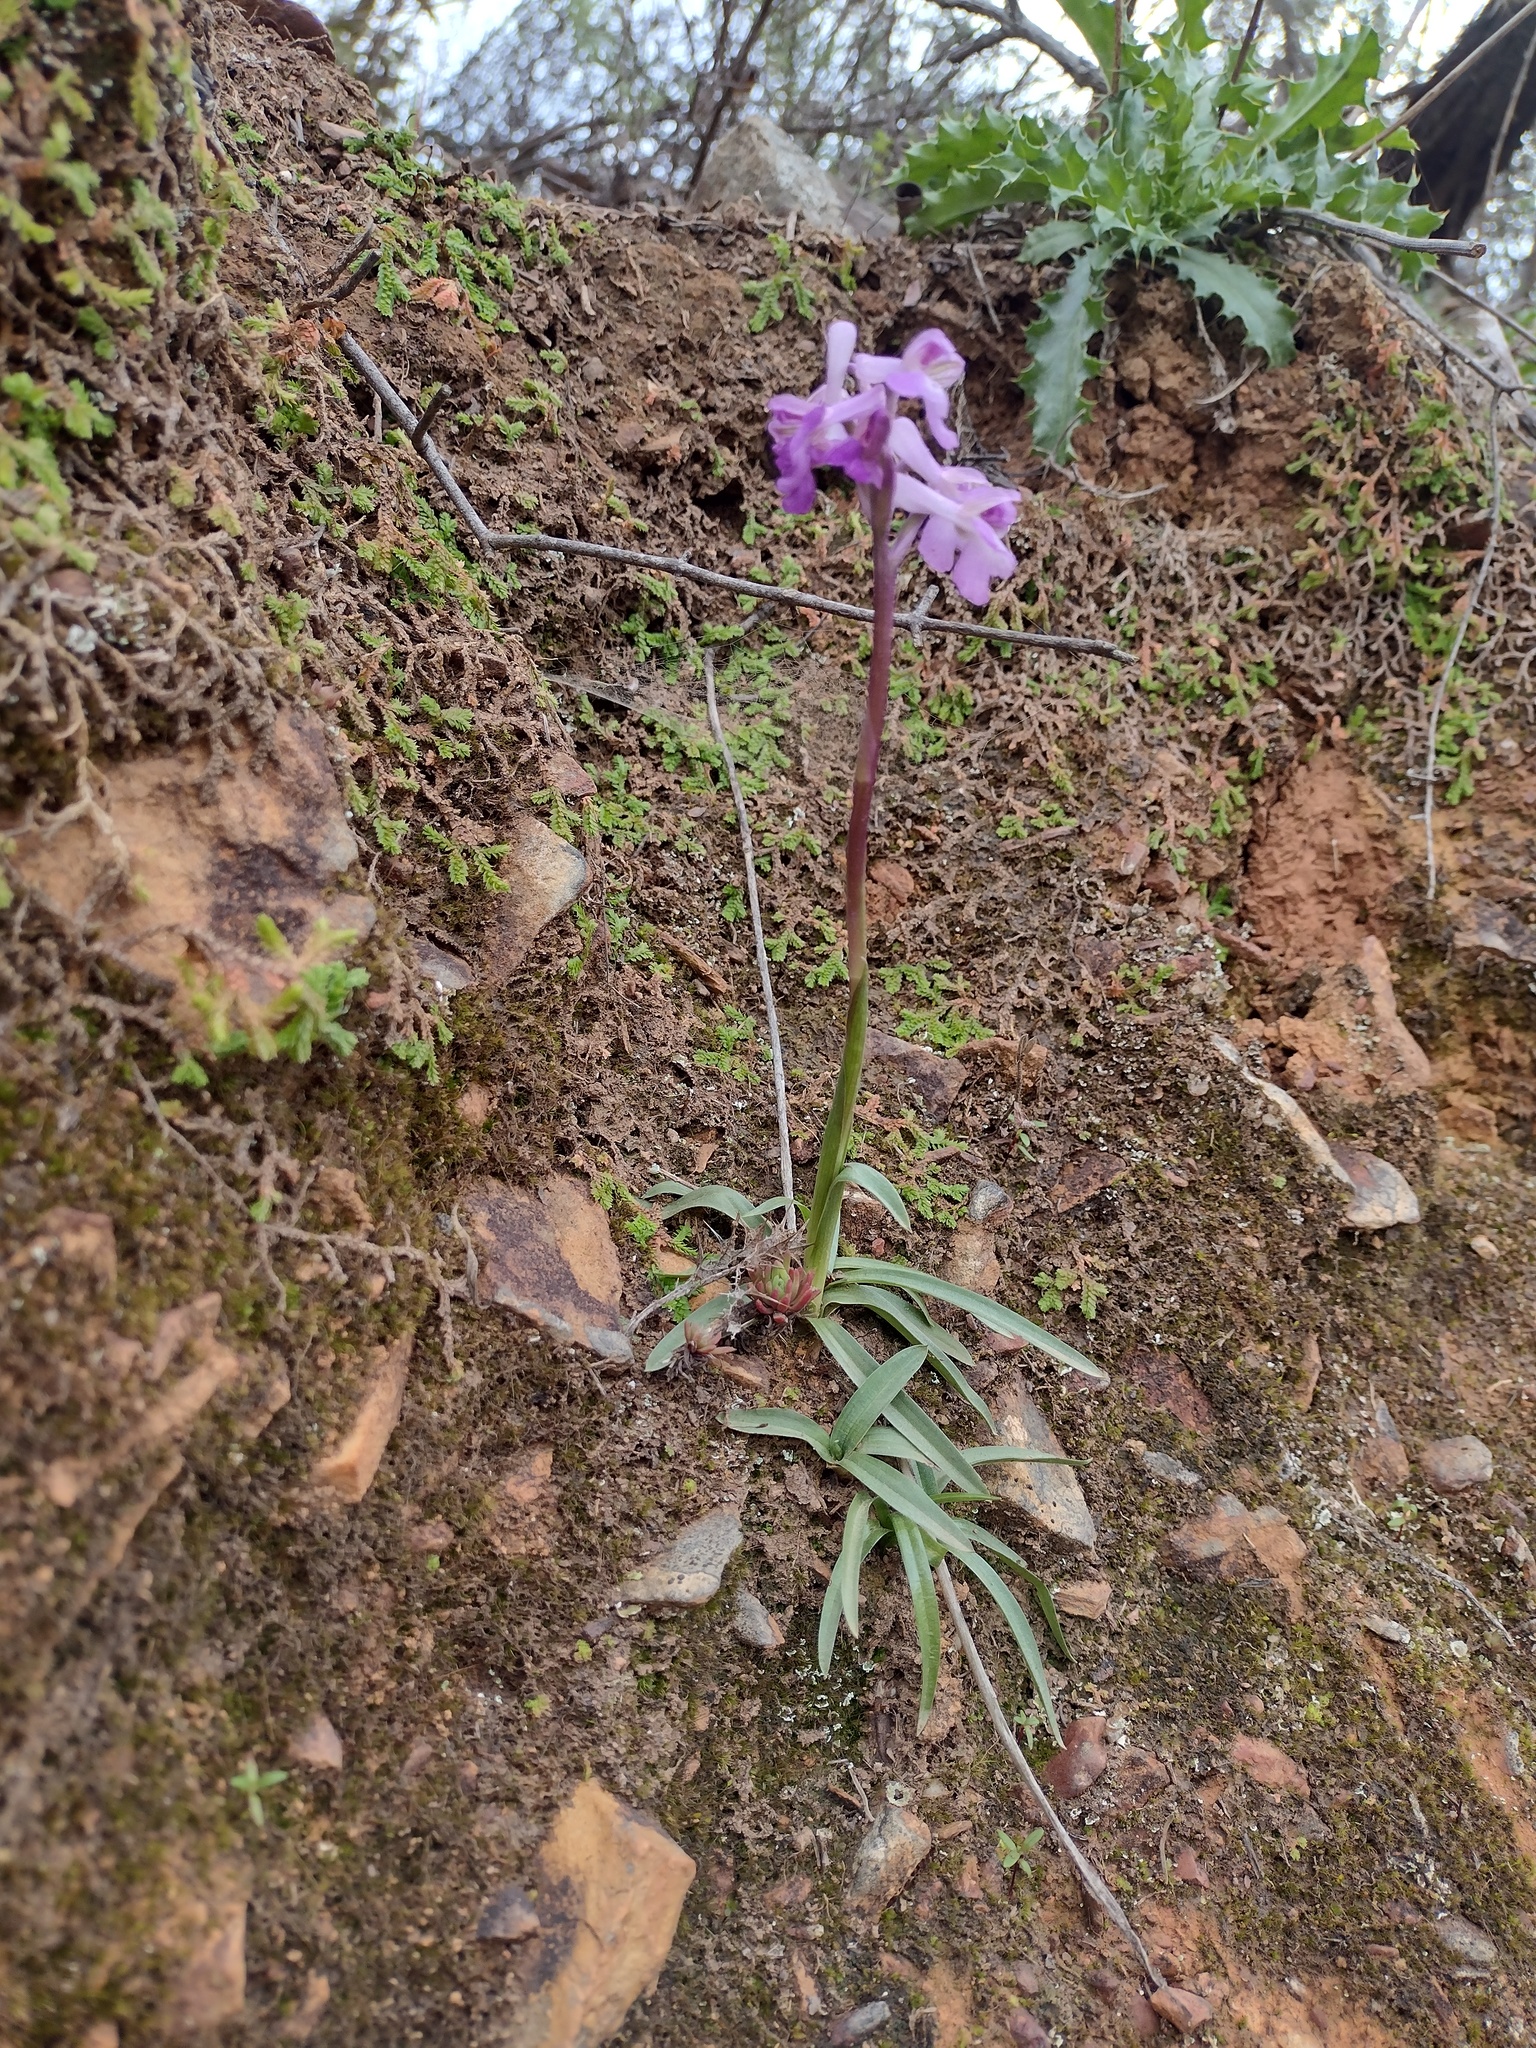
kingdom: Plantae
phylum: Tracheophyta
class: Liliopsida
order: Asparagales
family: Orchidaceae
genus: Anacamptis
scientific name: Anacamptis morio
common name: Green-winged orchid
